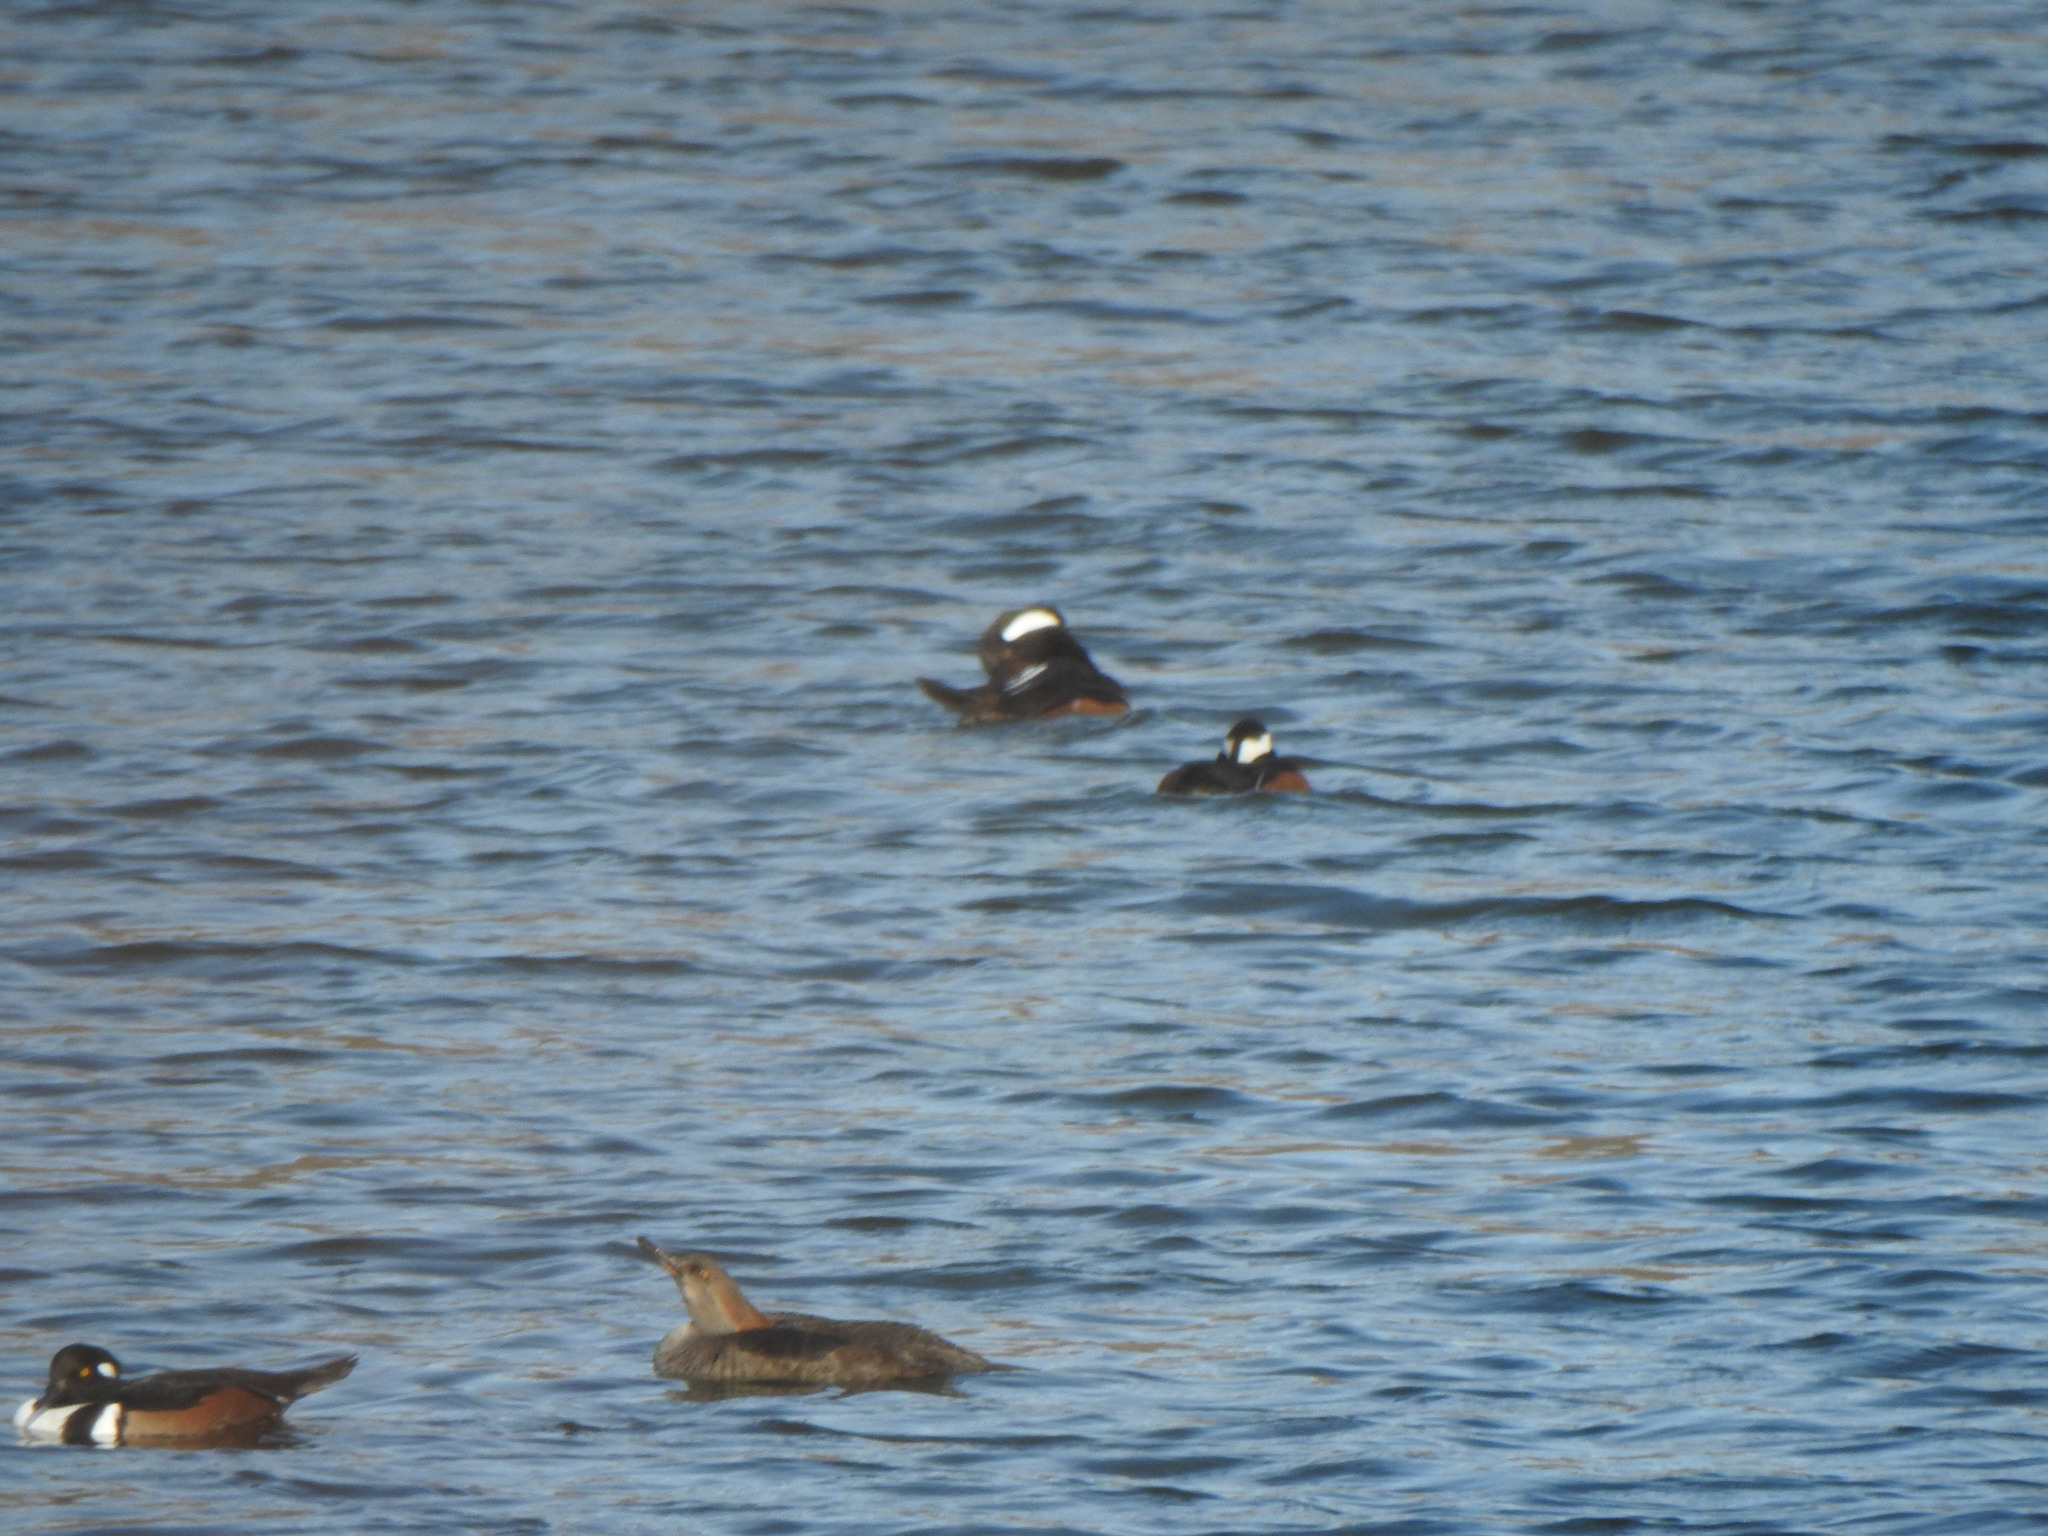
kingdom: Animalia
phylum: Chordata
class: Aves
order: Anseriformes
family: Anatidae
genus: Lophodytes
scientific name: Lophodytes cucullatus
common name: Hooded merganser
